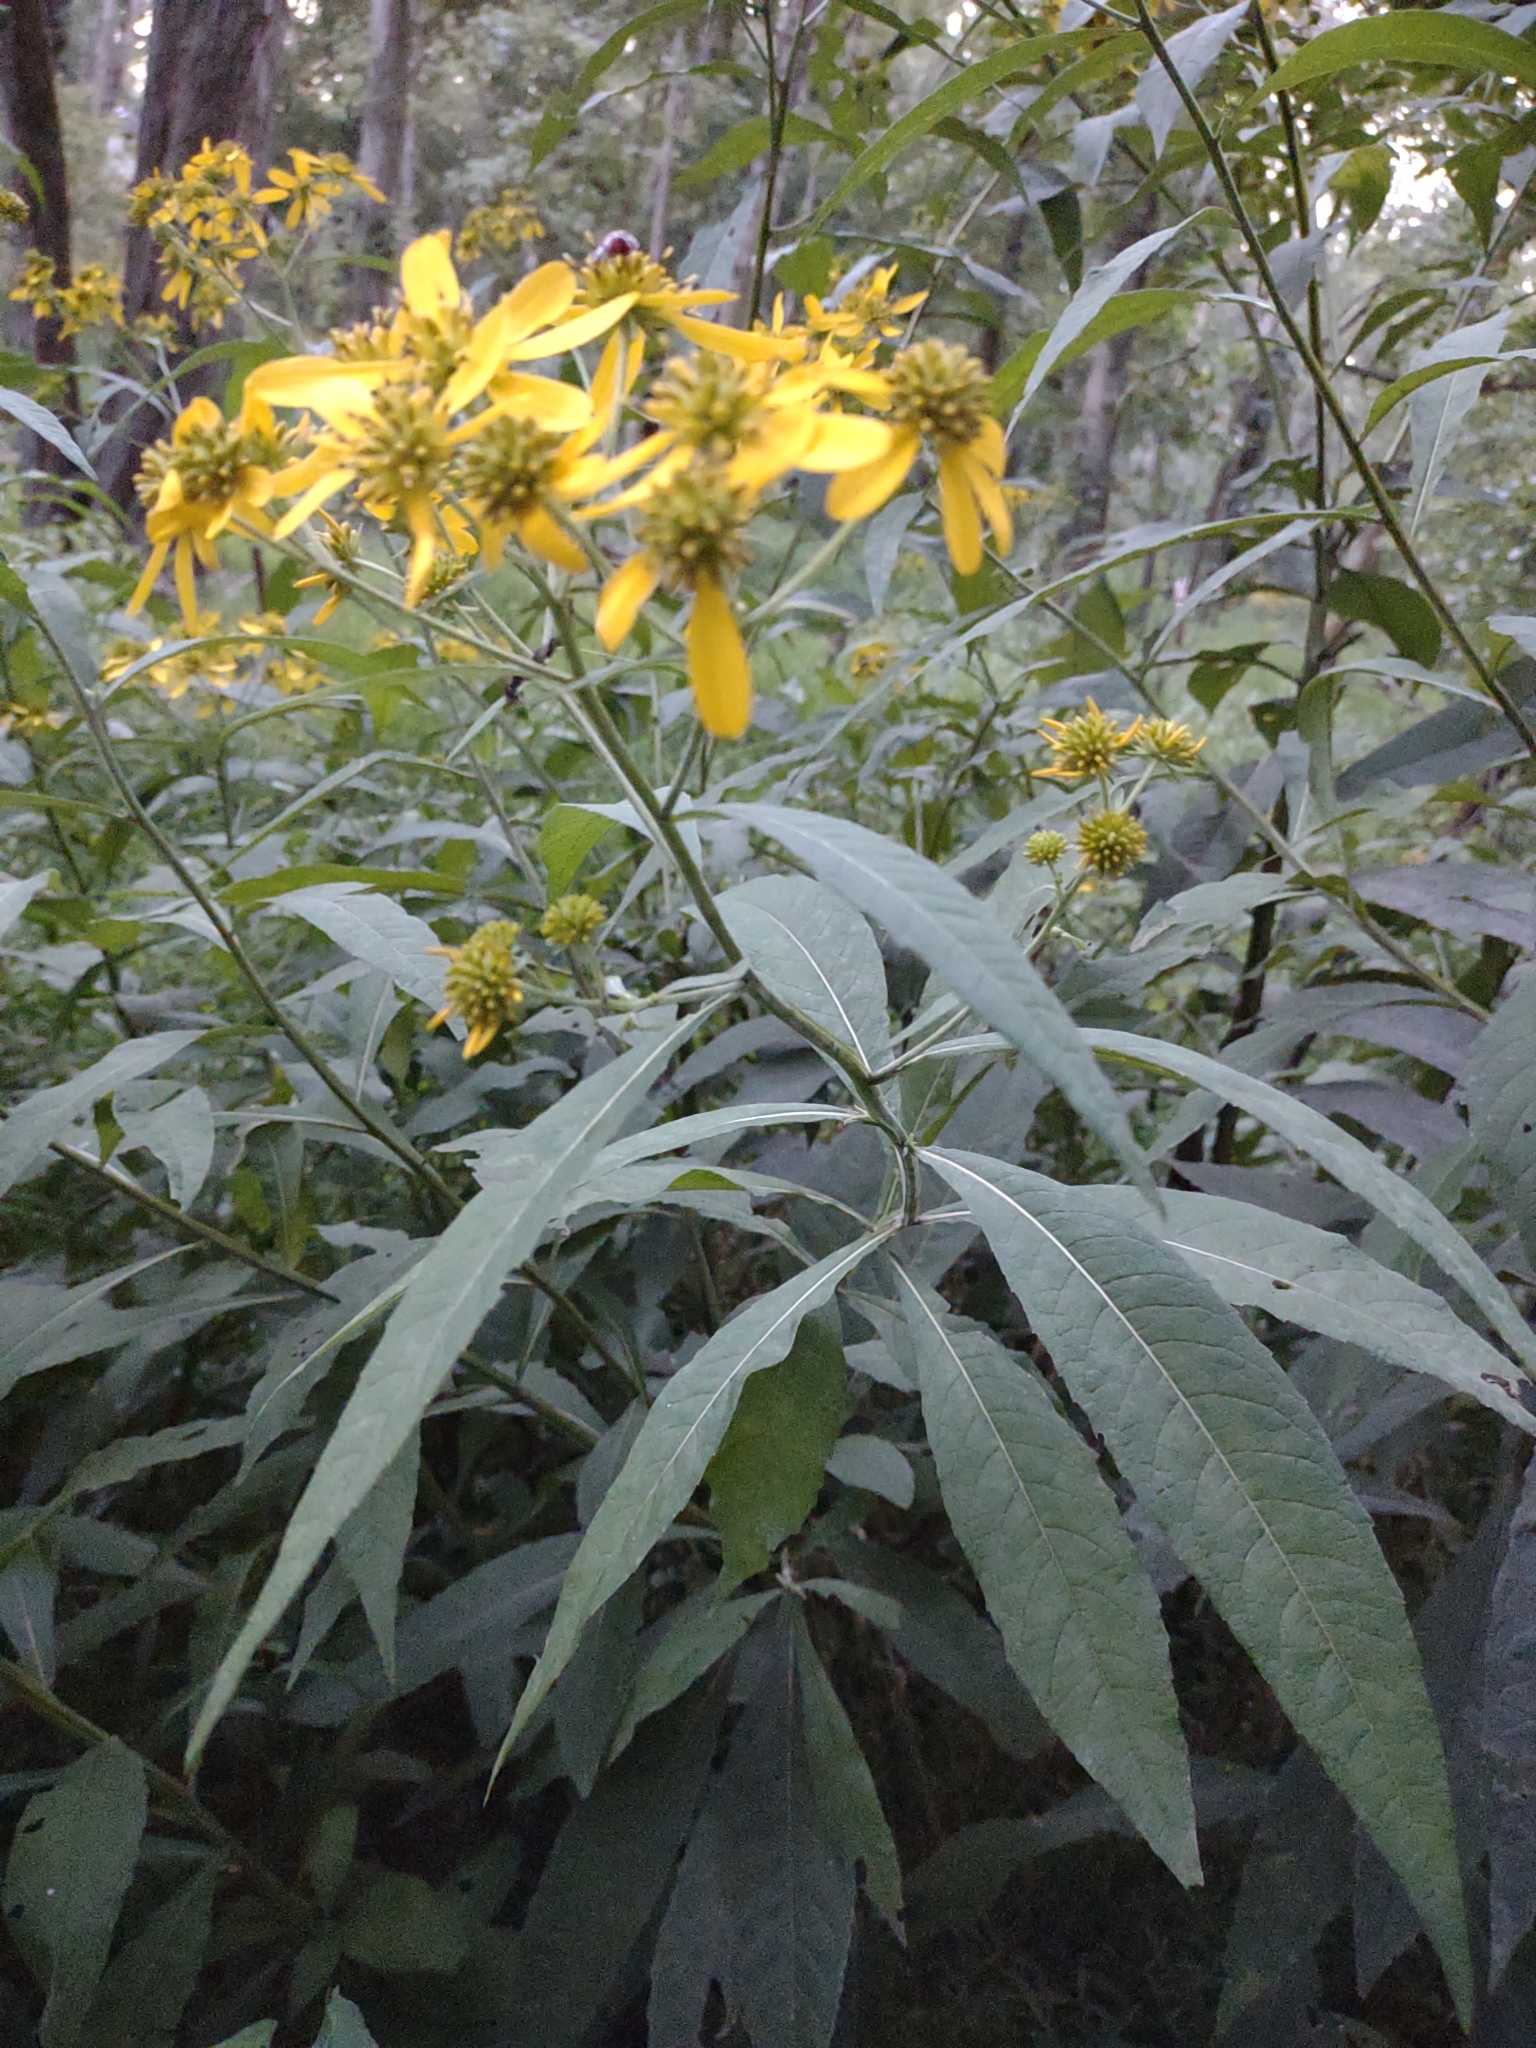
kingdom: Plantae
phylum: Tracheophyta
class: Magnoliopsida
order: Asterales
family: Asteraceae
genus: Verbesina
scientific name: Verbesina alternifolia
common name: Wingstem
